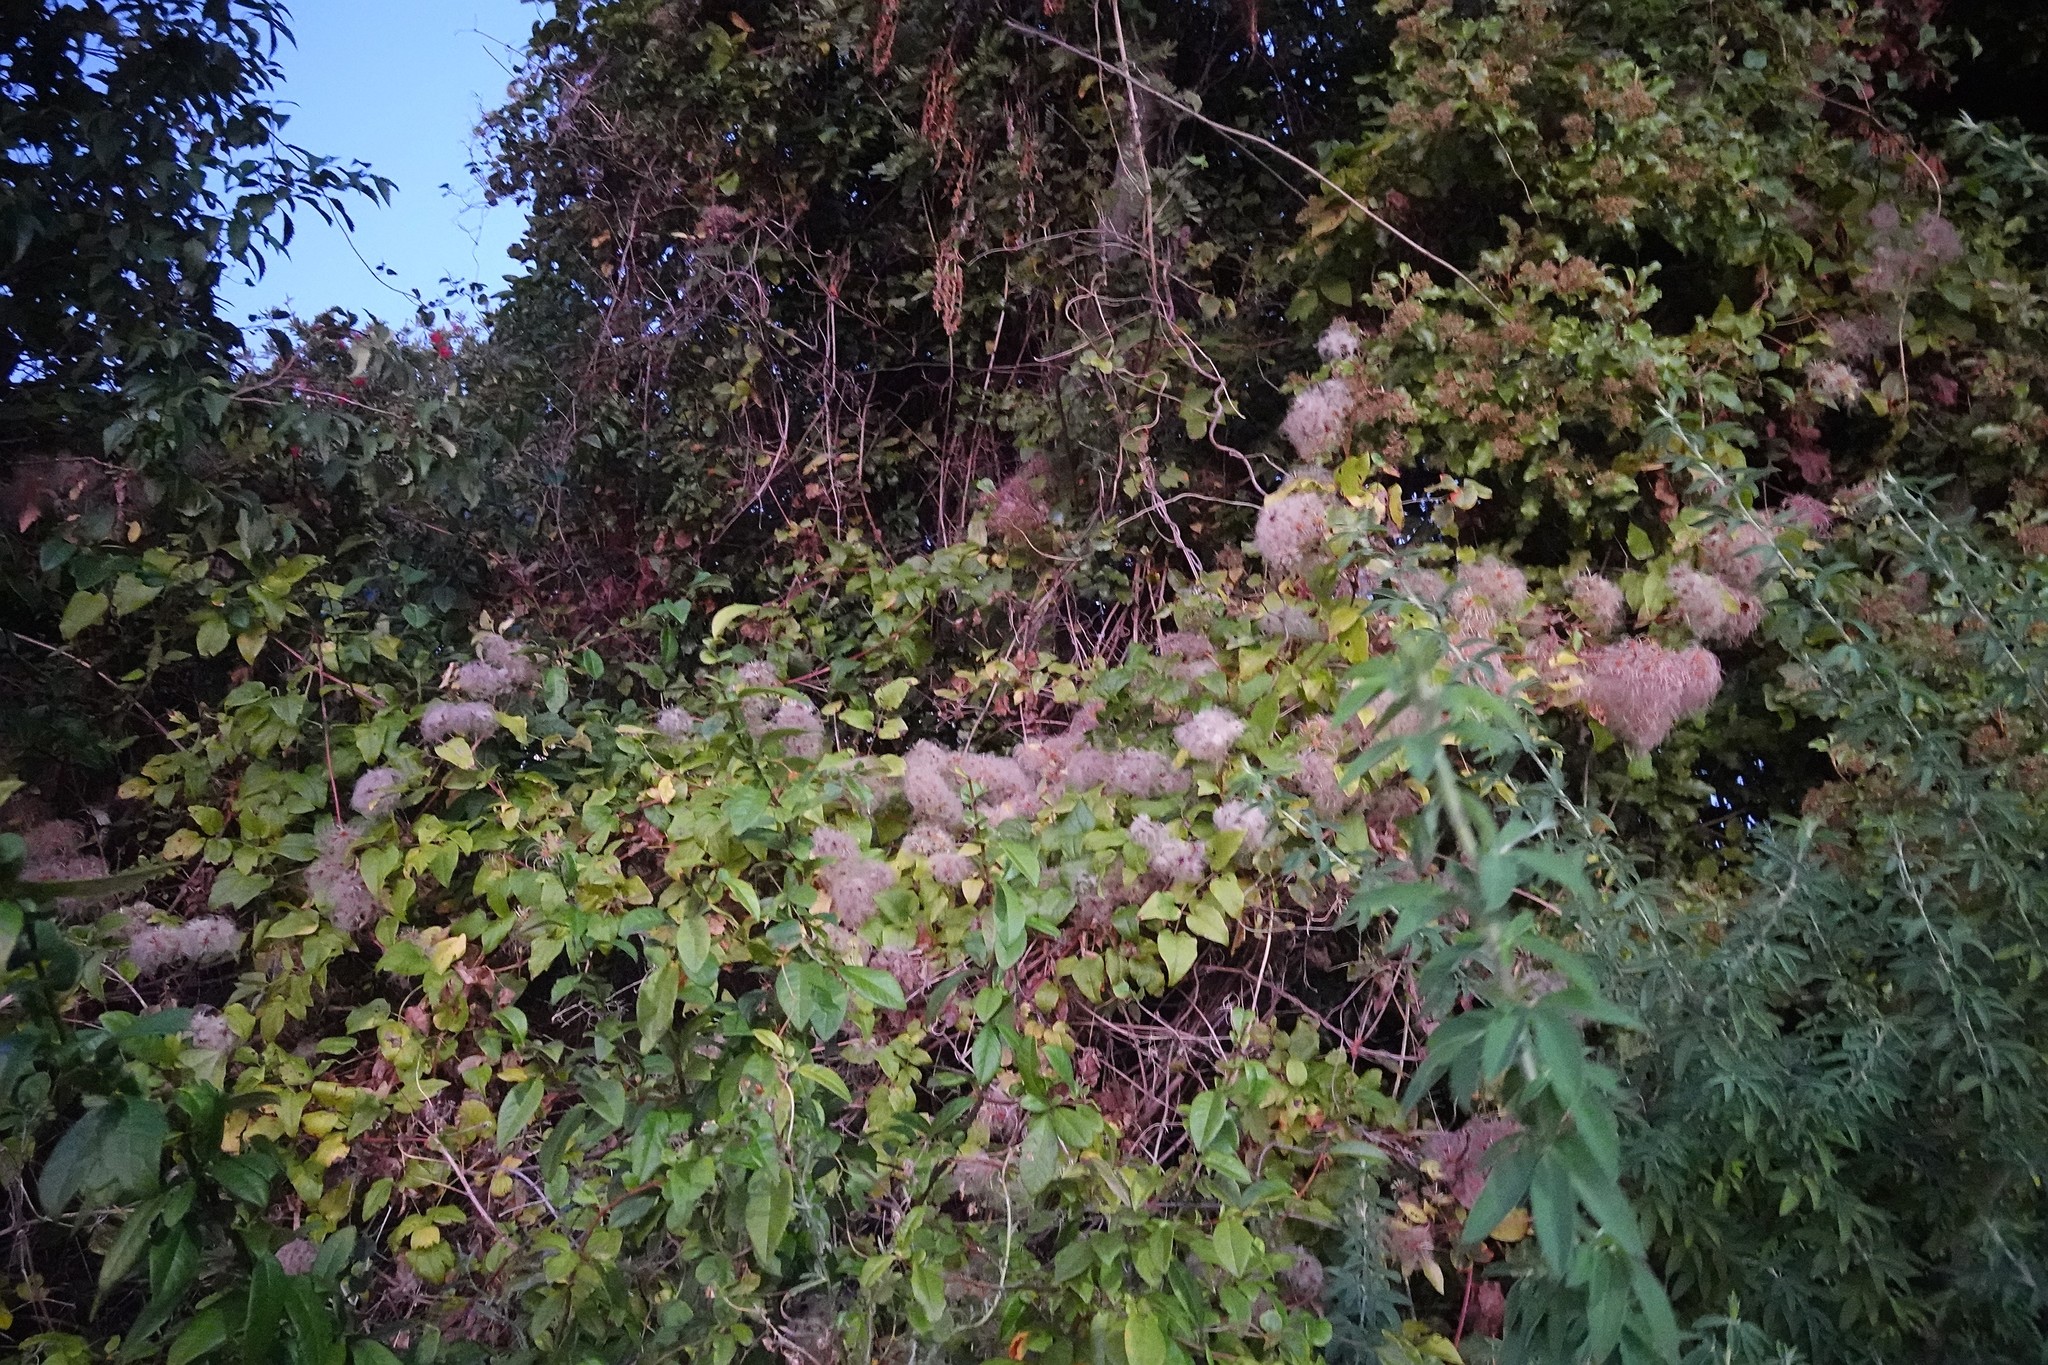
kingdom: Plantae
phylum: Tracheophyta
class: Magnoliopsida
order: Ranunculales
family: Ranunculaceae
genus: Clematis
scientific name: Clematis vitalba
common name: Evergreen clematis
